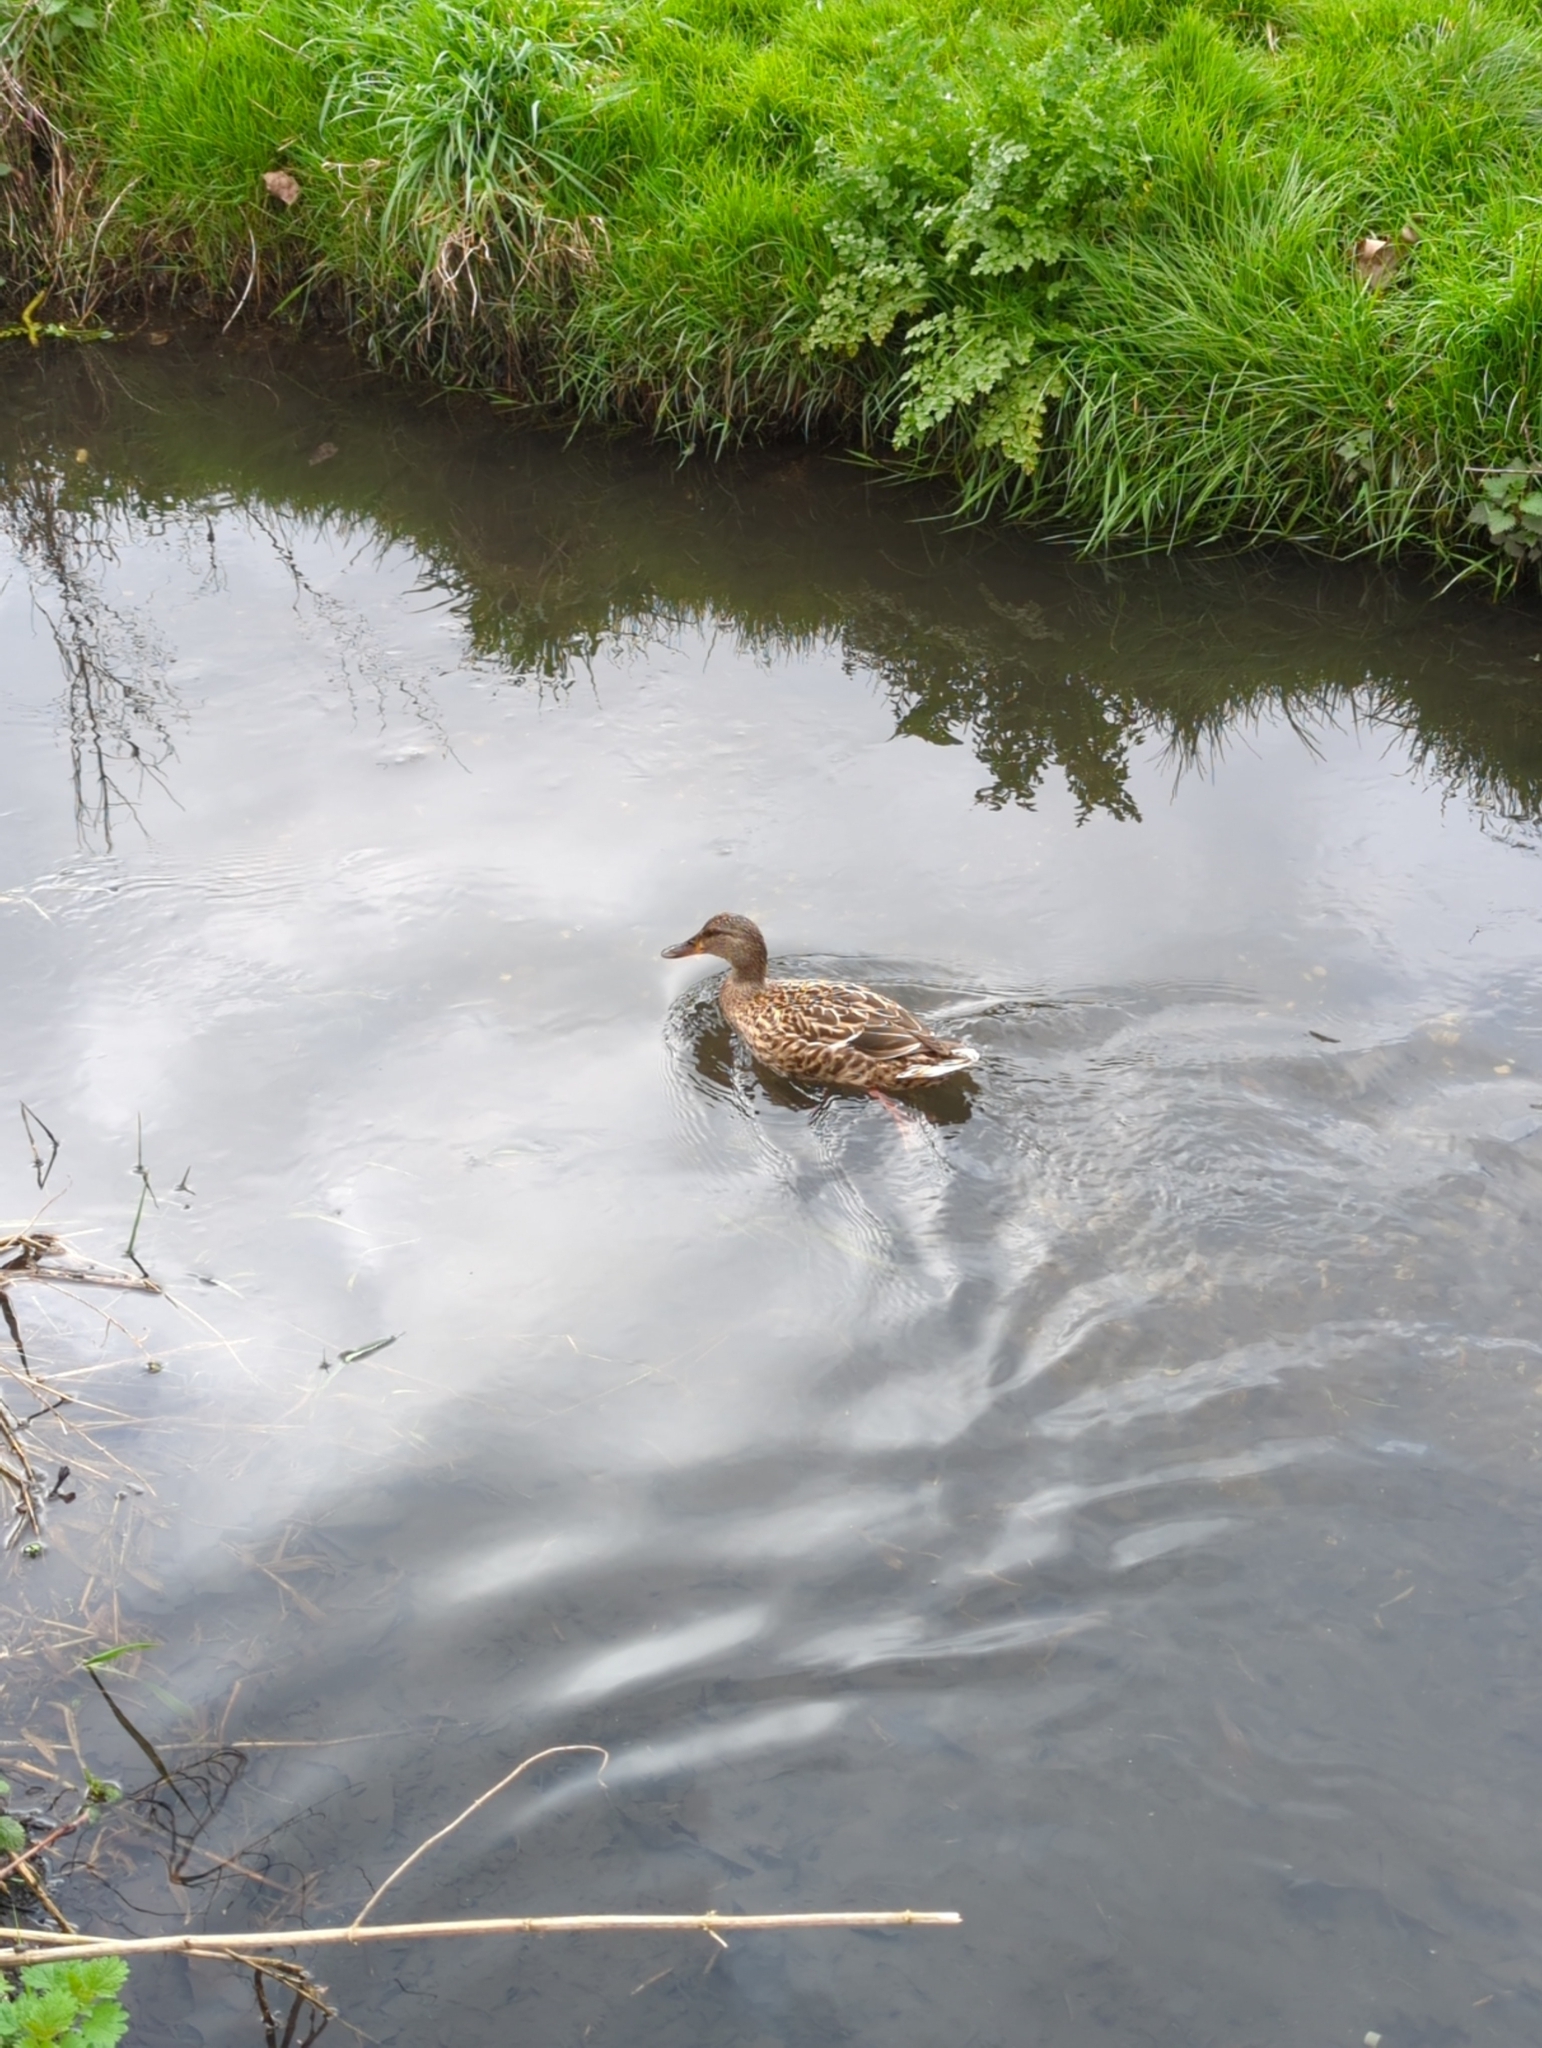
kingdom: Animalia
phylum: Chordata
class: Aves
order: Anseriformes
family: Anatidae
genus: Anas
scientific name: Anas platyrhynchos
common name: Mallard
